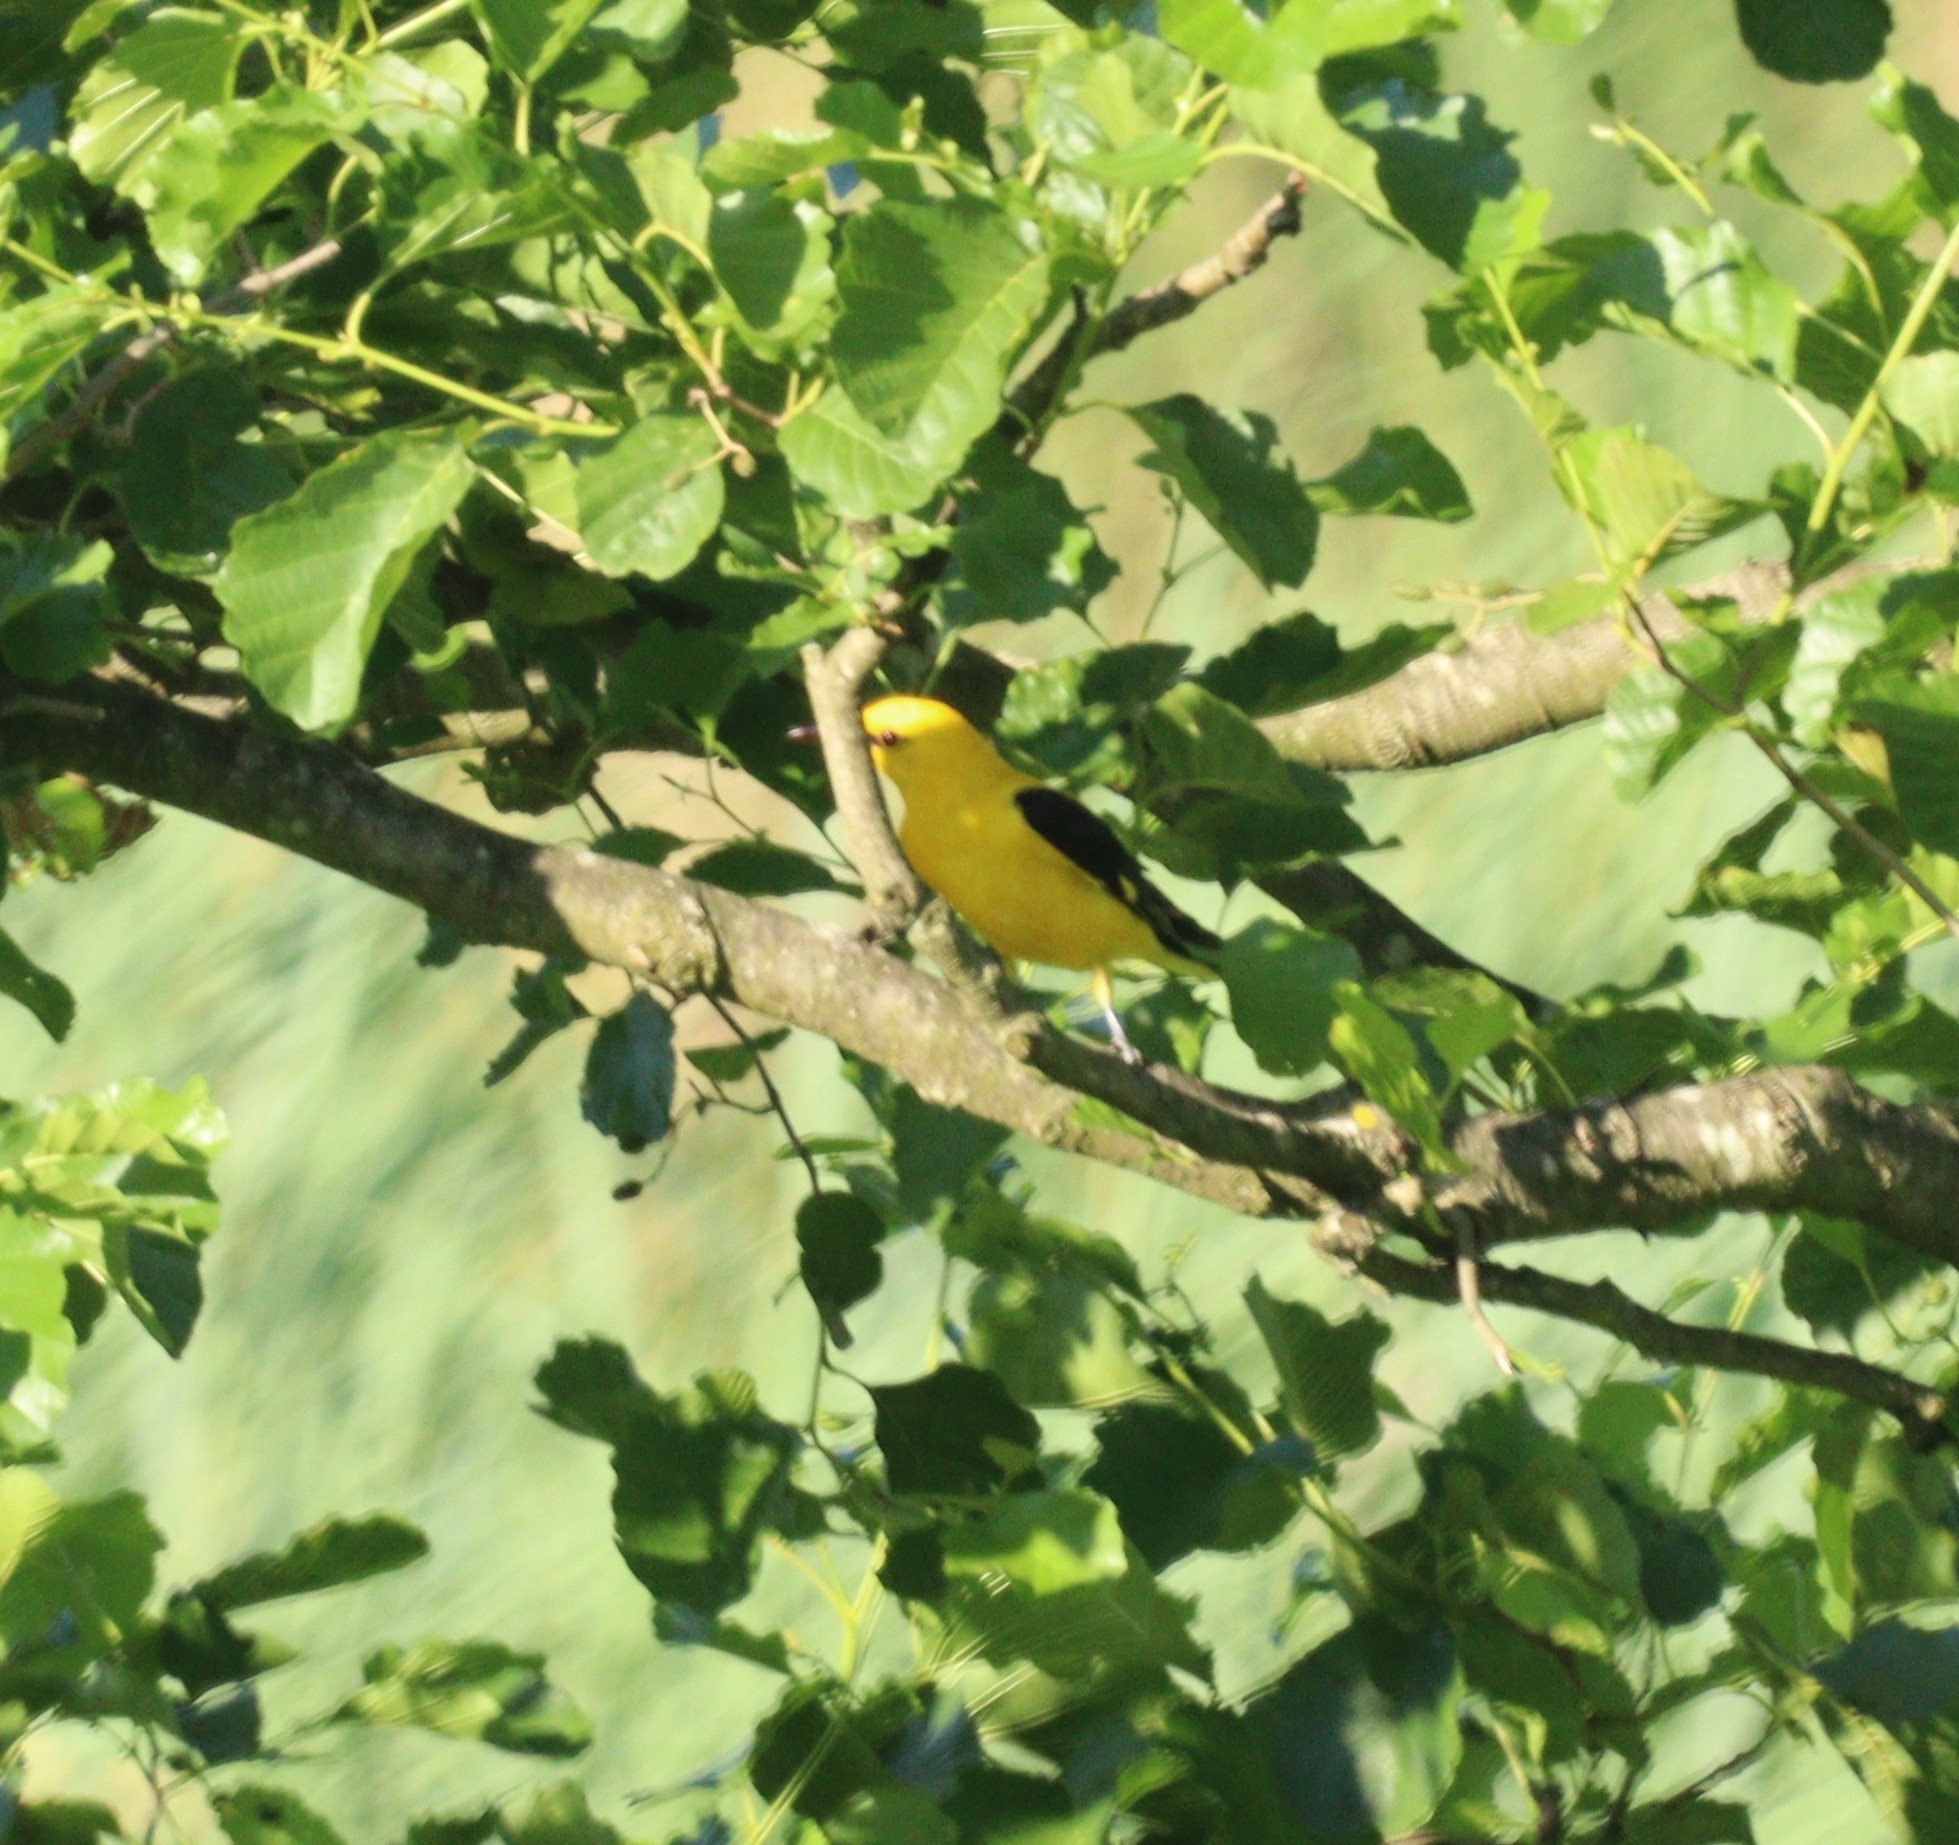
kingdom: Animalia
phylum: Chordata
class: Aves
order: Passeriformes
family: Oriolidae
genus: Oriolus
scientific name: Oriolus oriolus
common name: Eurasian golden oriole
